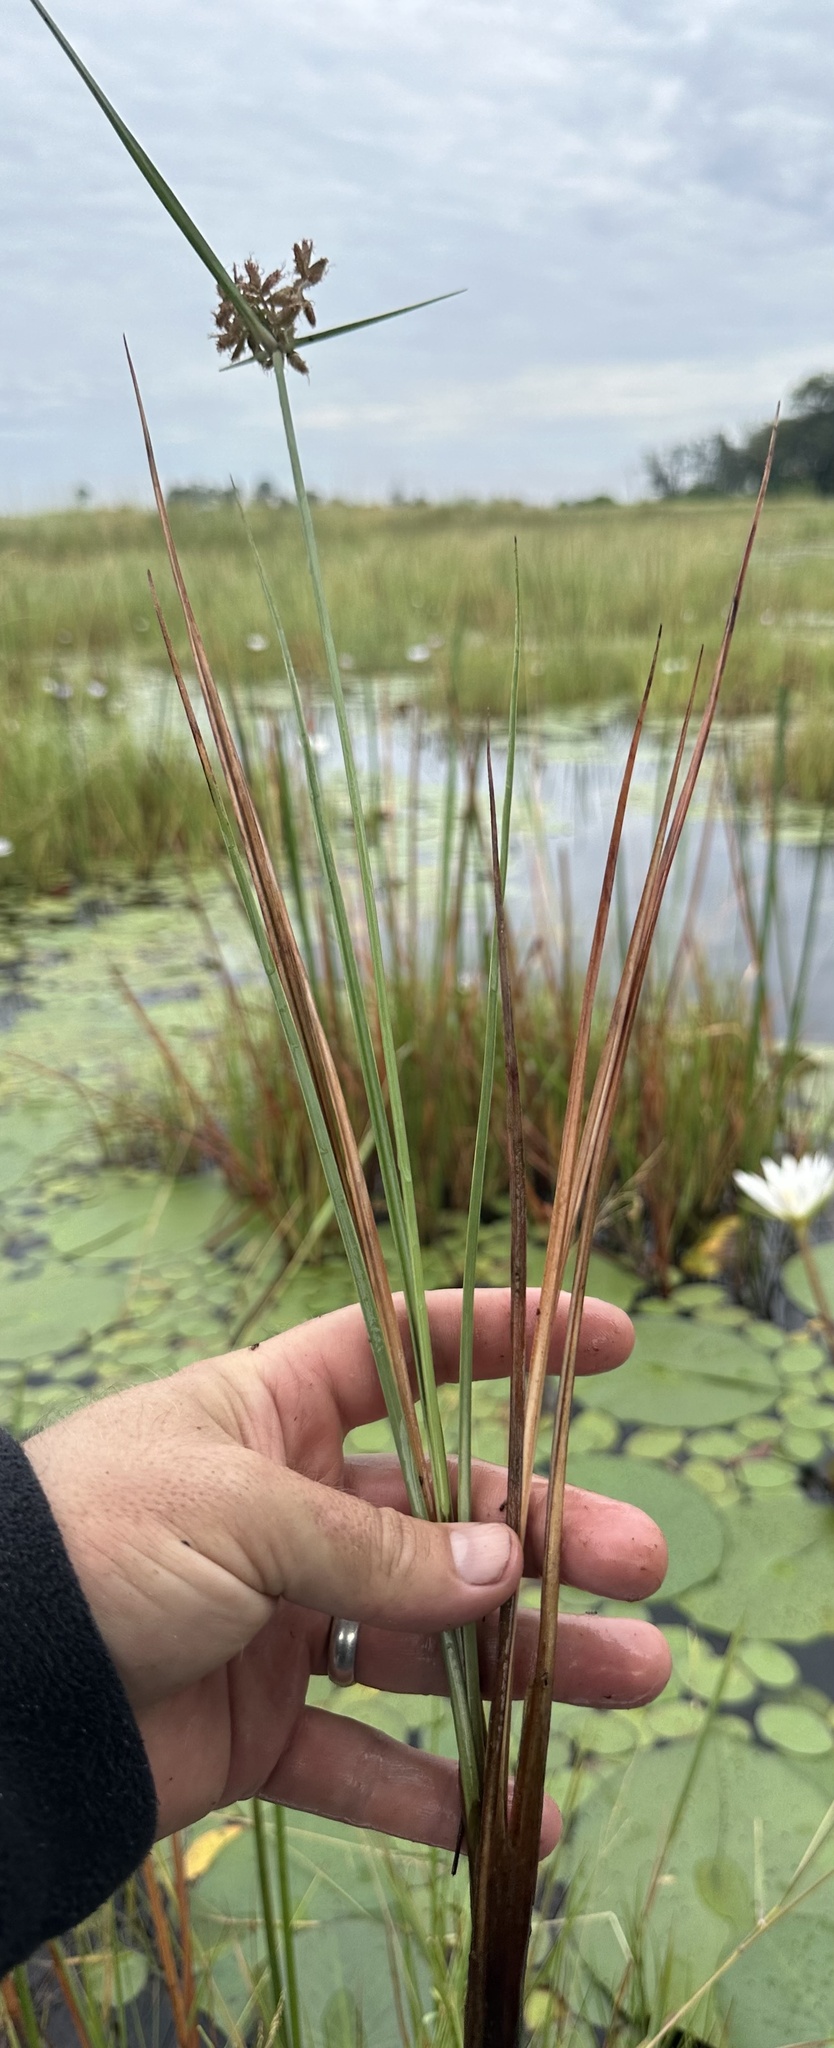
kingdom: Plantae
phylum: Tracheophyta
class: Liliopsida
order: Poales
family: Cyperaceae
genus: Cyperus
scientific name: Cyperus nitidus
